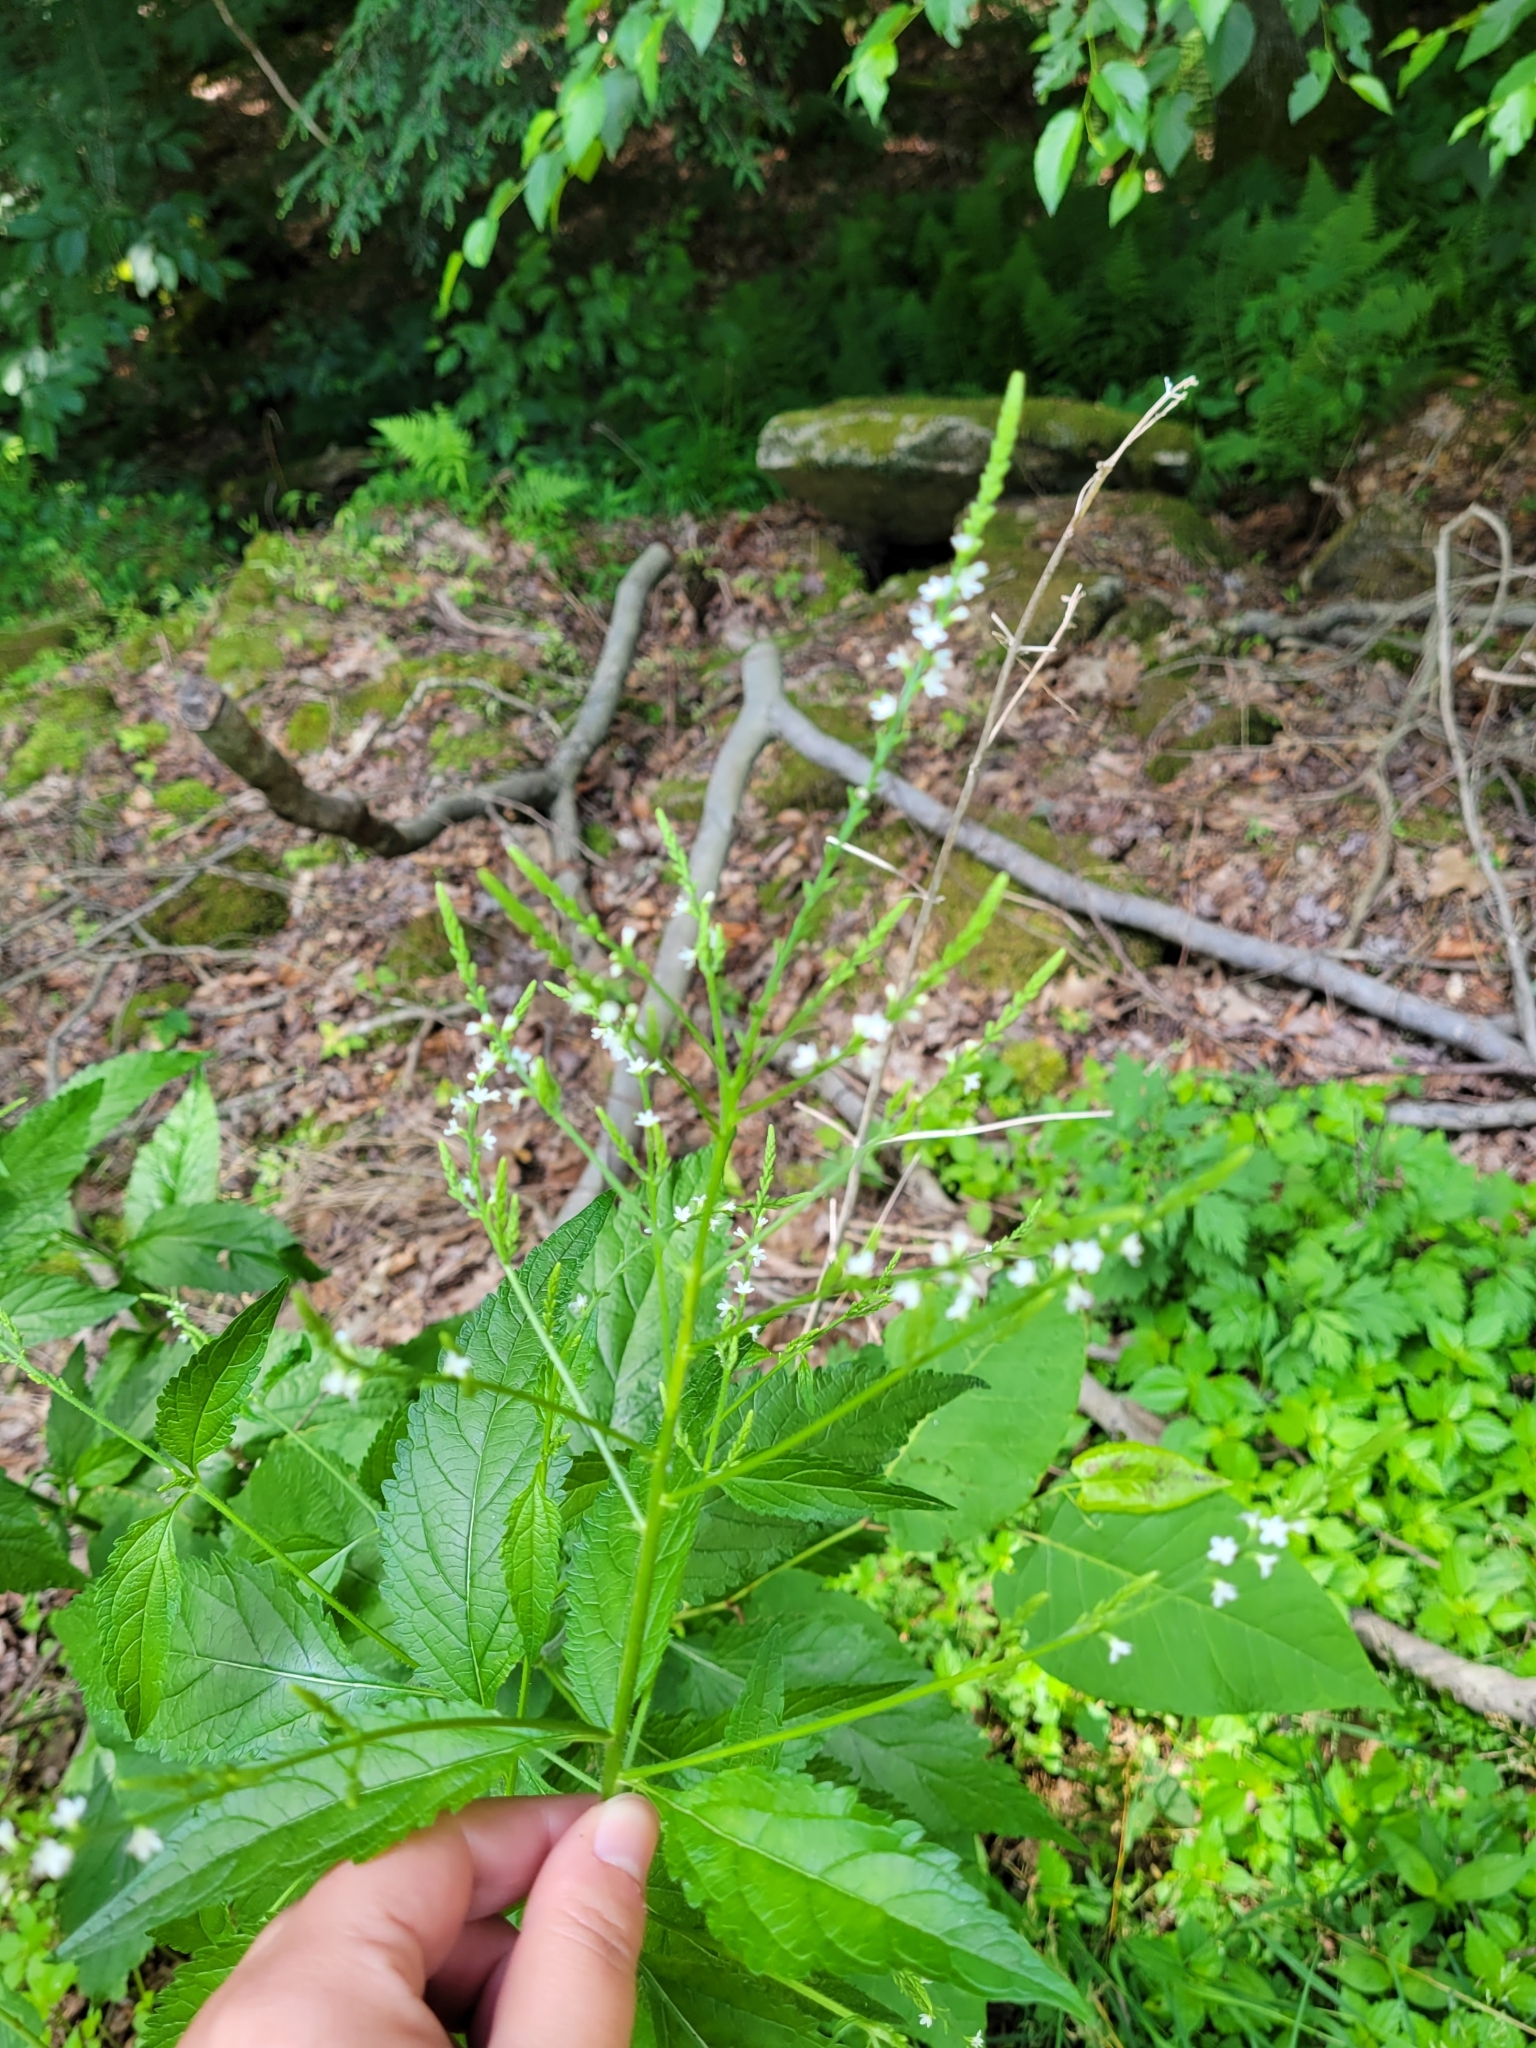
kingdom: Plantae
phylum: Tracheophyta
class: Magnoliopsida
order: Lamiales
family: Verbenaceae
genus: Verbena
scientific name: Verbena urticifolia
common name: Nettle-leaved vervain
